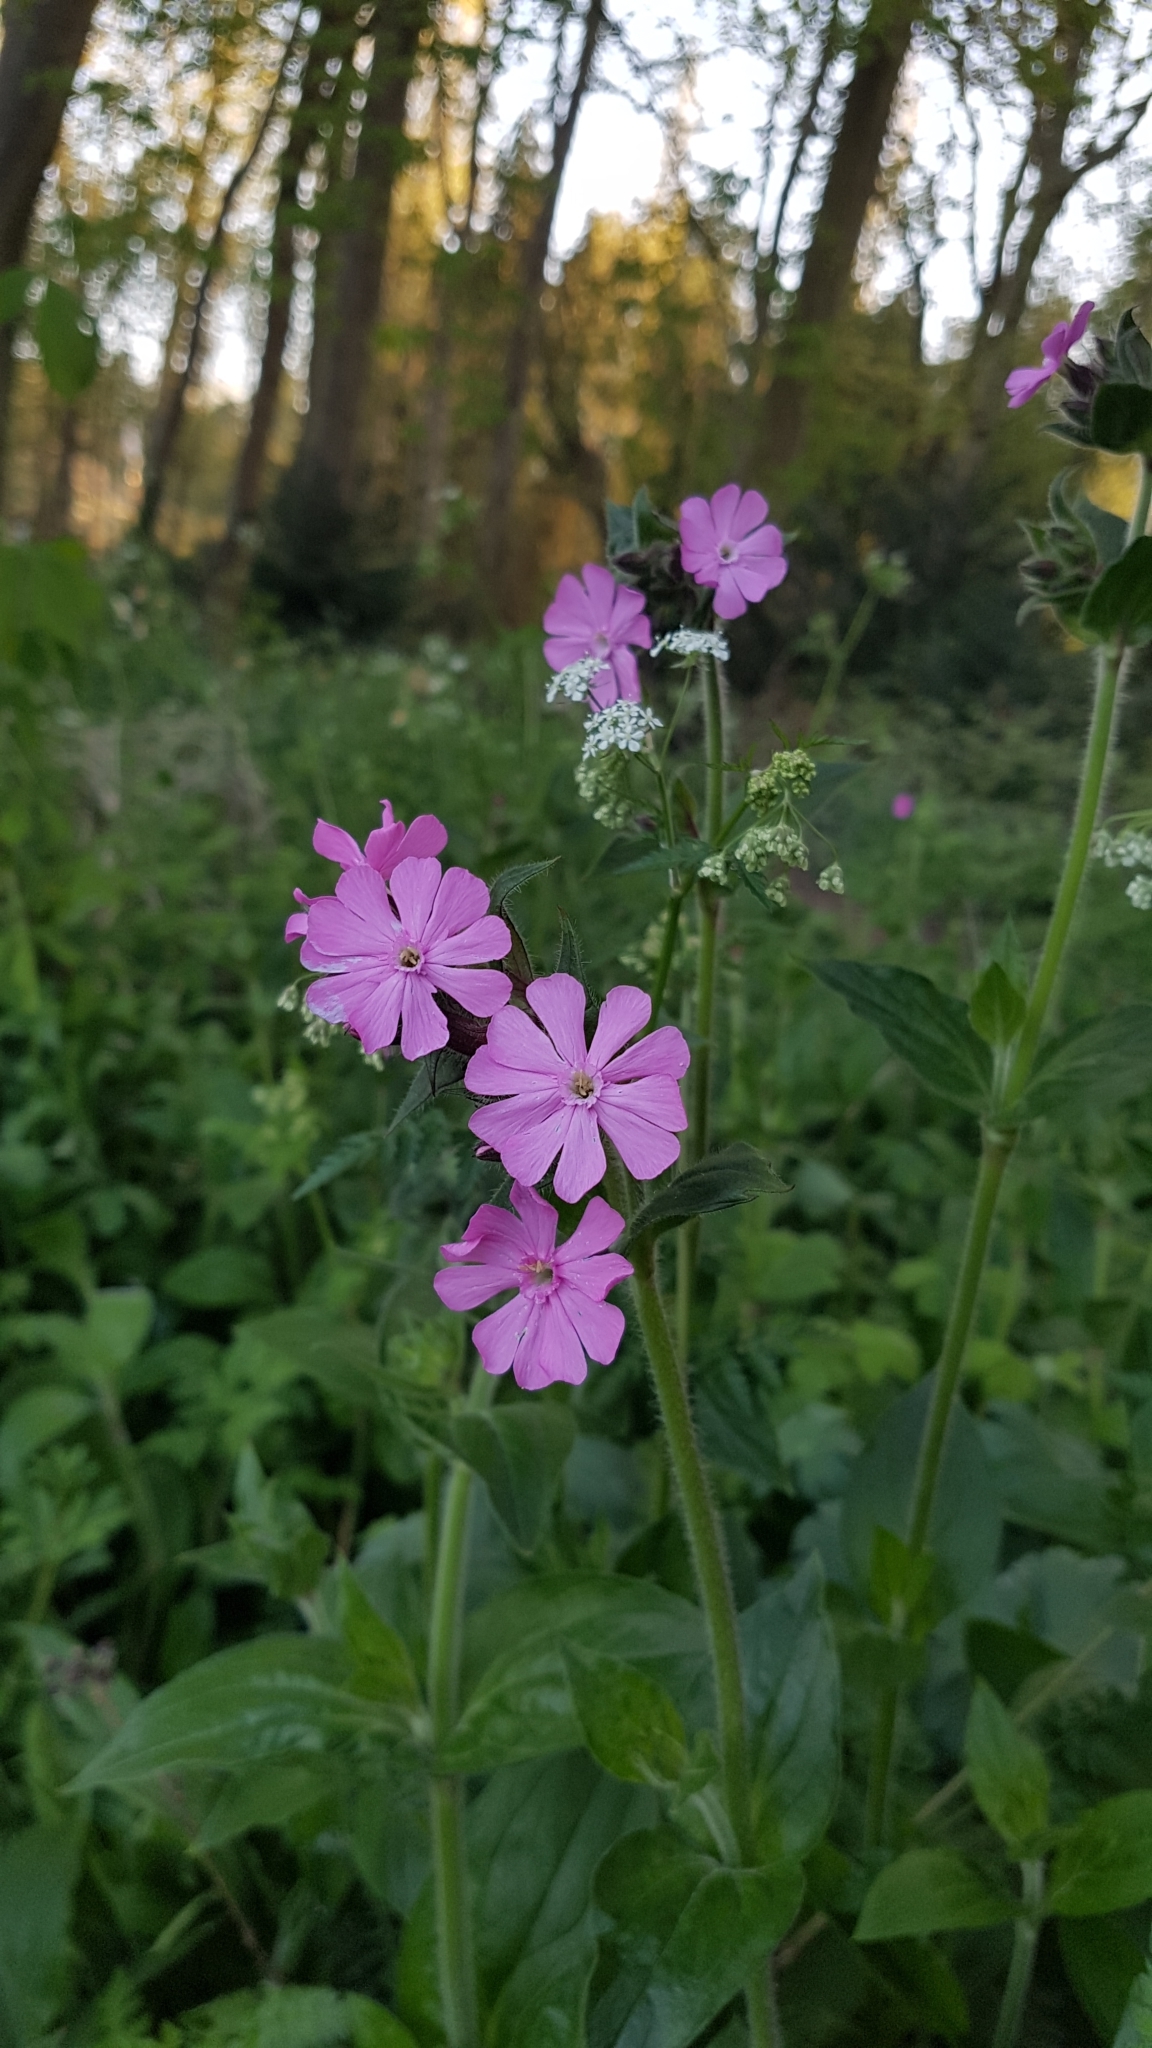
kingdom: Plantae
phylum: Tracheophyta
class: Magnoliopsida
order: Caryophyllales
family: Caryophyllaceae
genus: Silene
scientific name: Silene dioica
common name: Red campion
